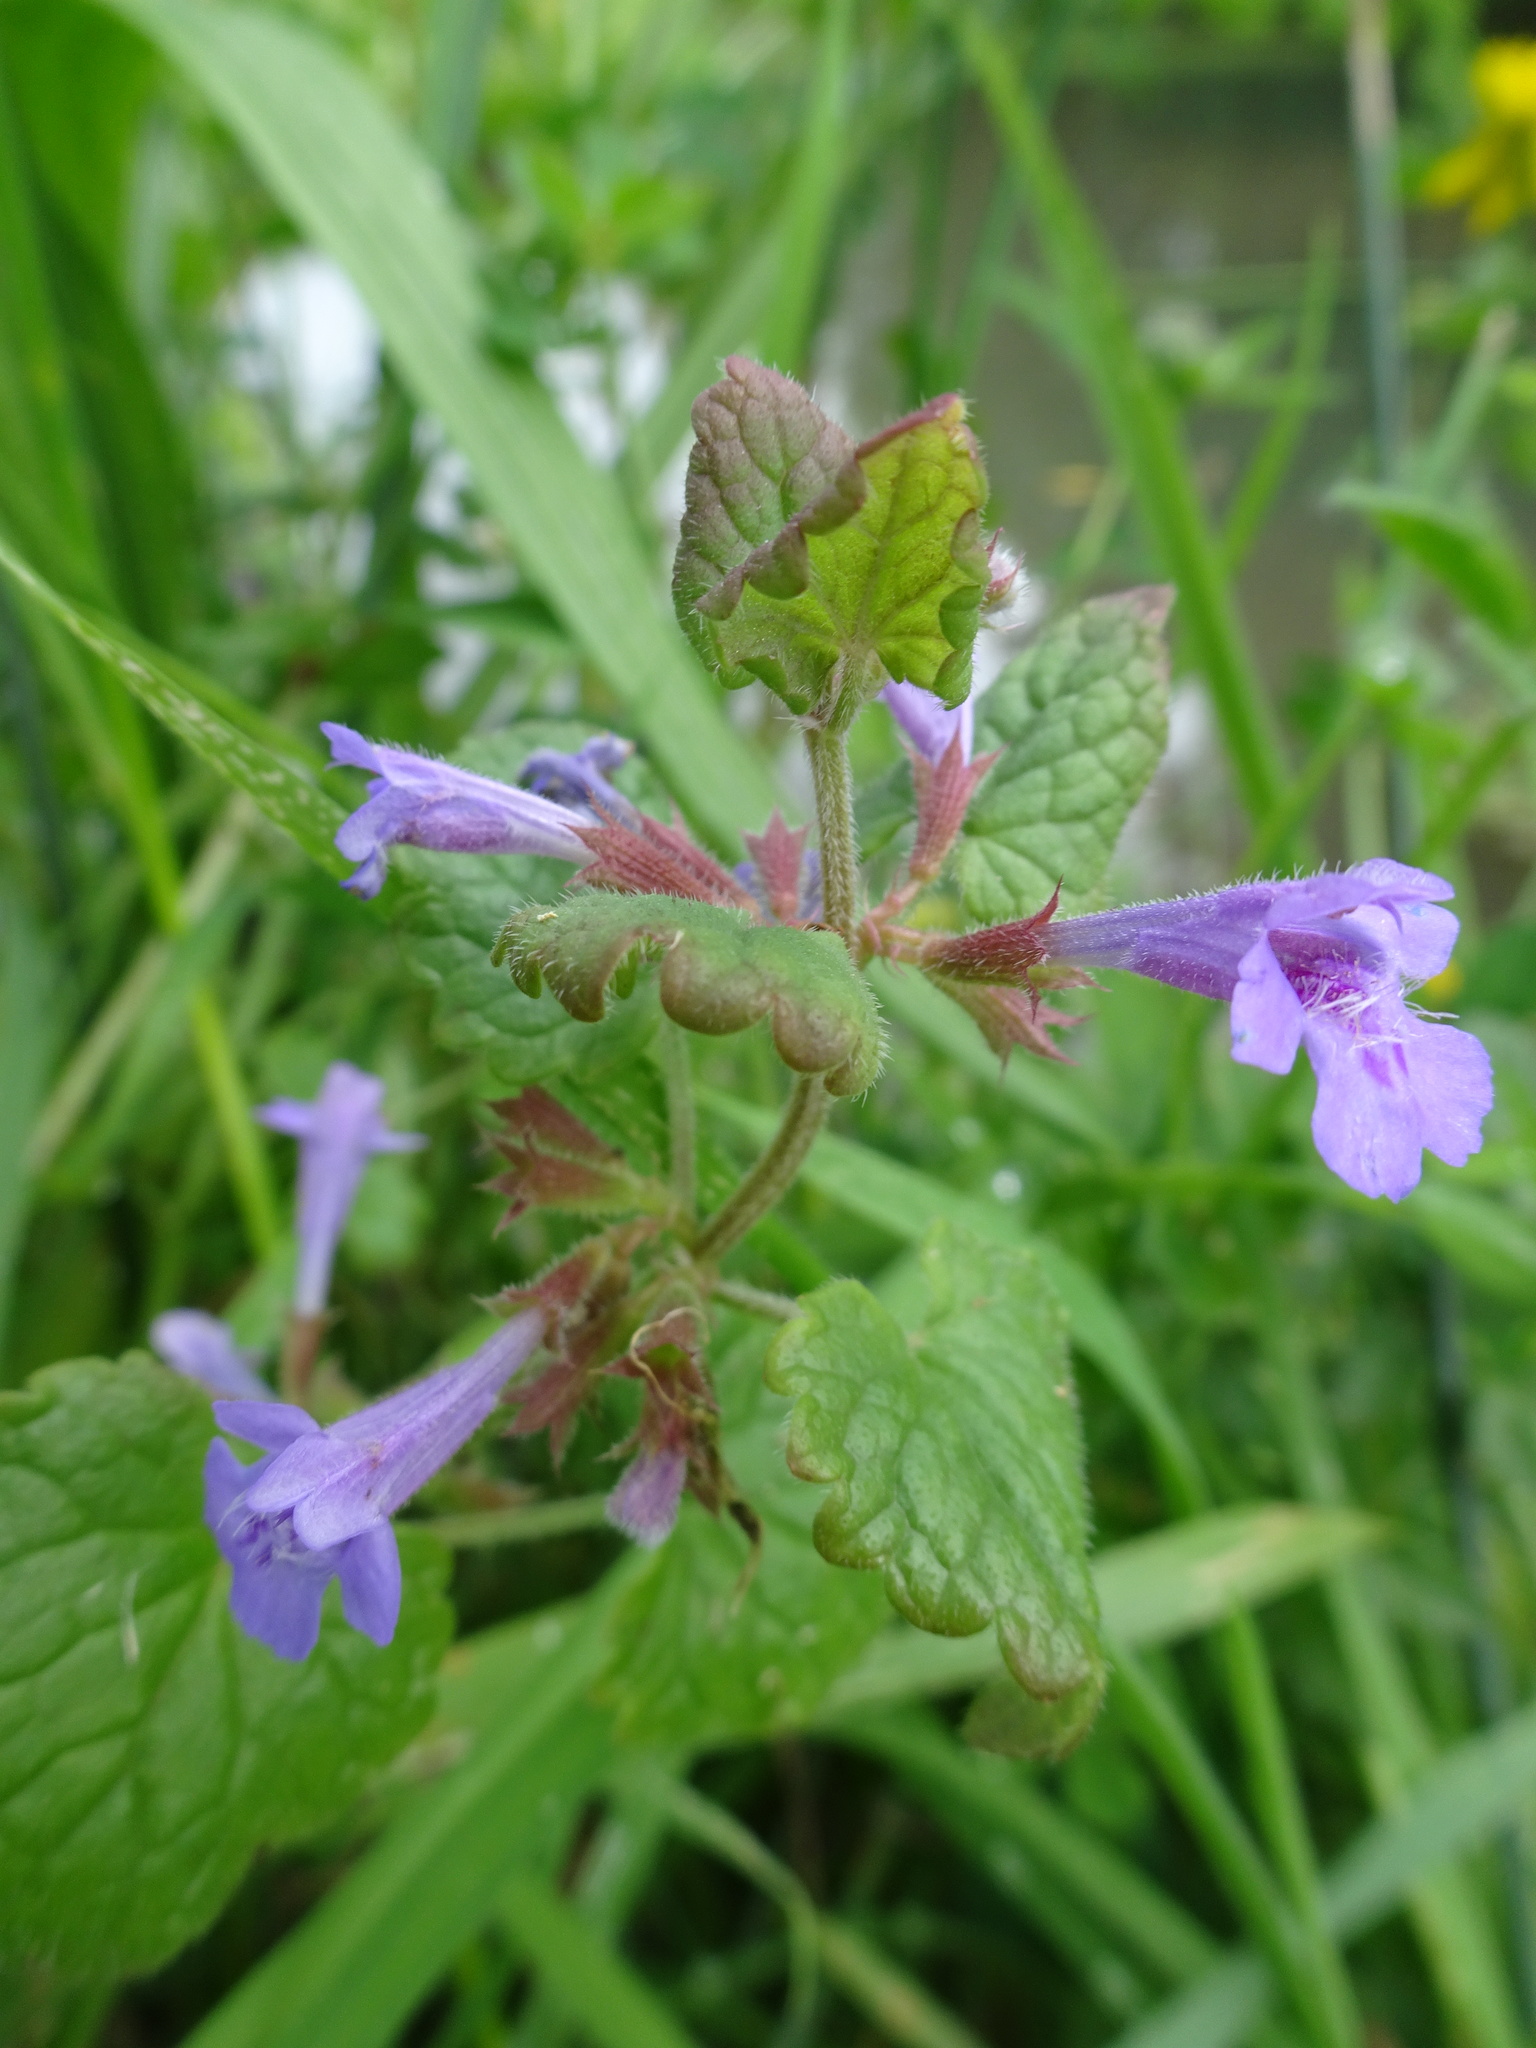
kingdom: Plantae
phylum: Tracheophyta
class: Magnoliopsida
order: Lamiales
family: Lamiaceae
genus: Glechoma
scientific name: Glechoma hederacea
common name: Ground ivy
